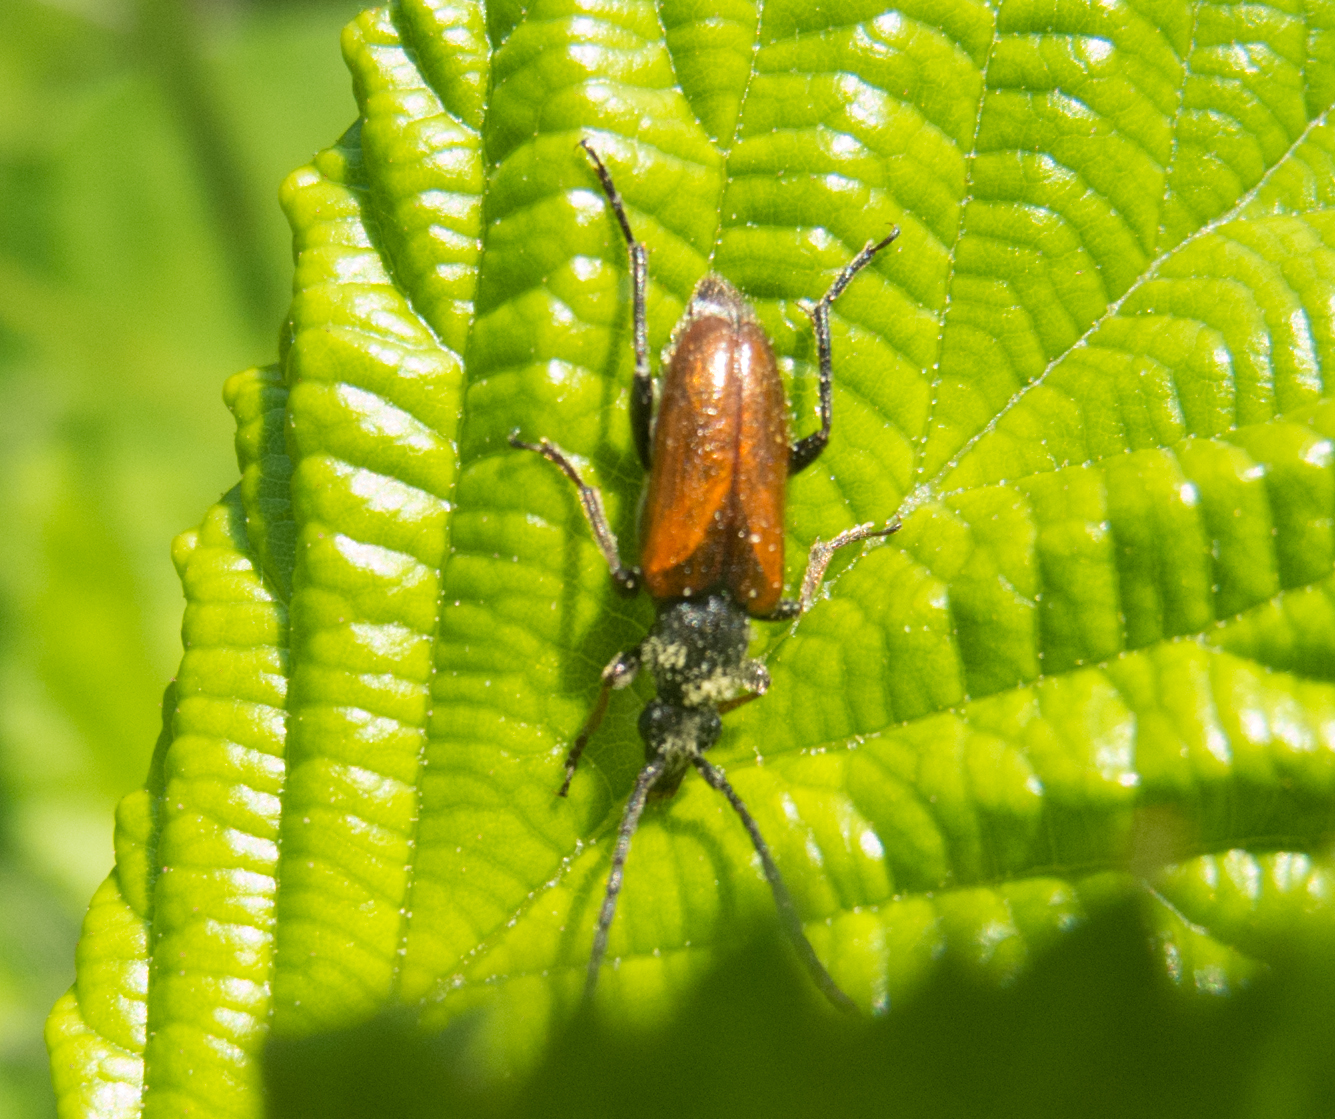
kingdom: Animalia
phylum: Arthropoda
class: Insecta
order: Coleoptera
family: Cerambycidae
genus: Pseudovadonia
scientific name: Pseudovadonia livida
